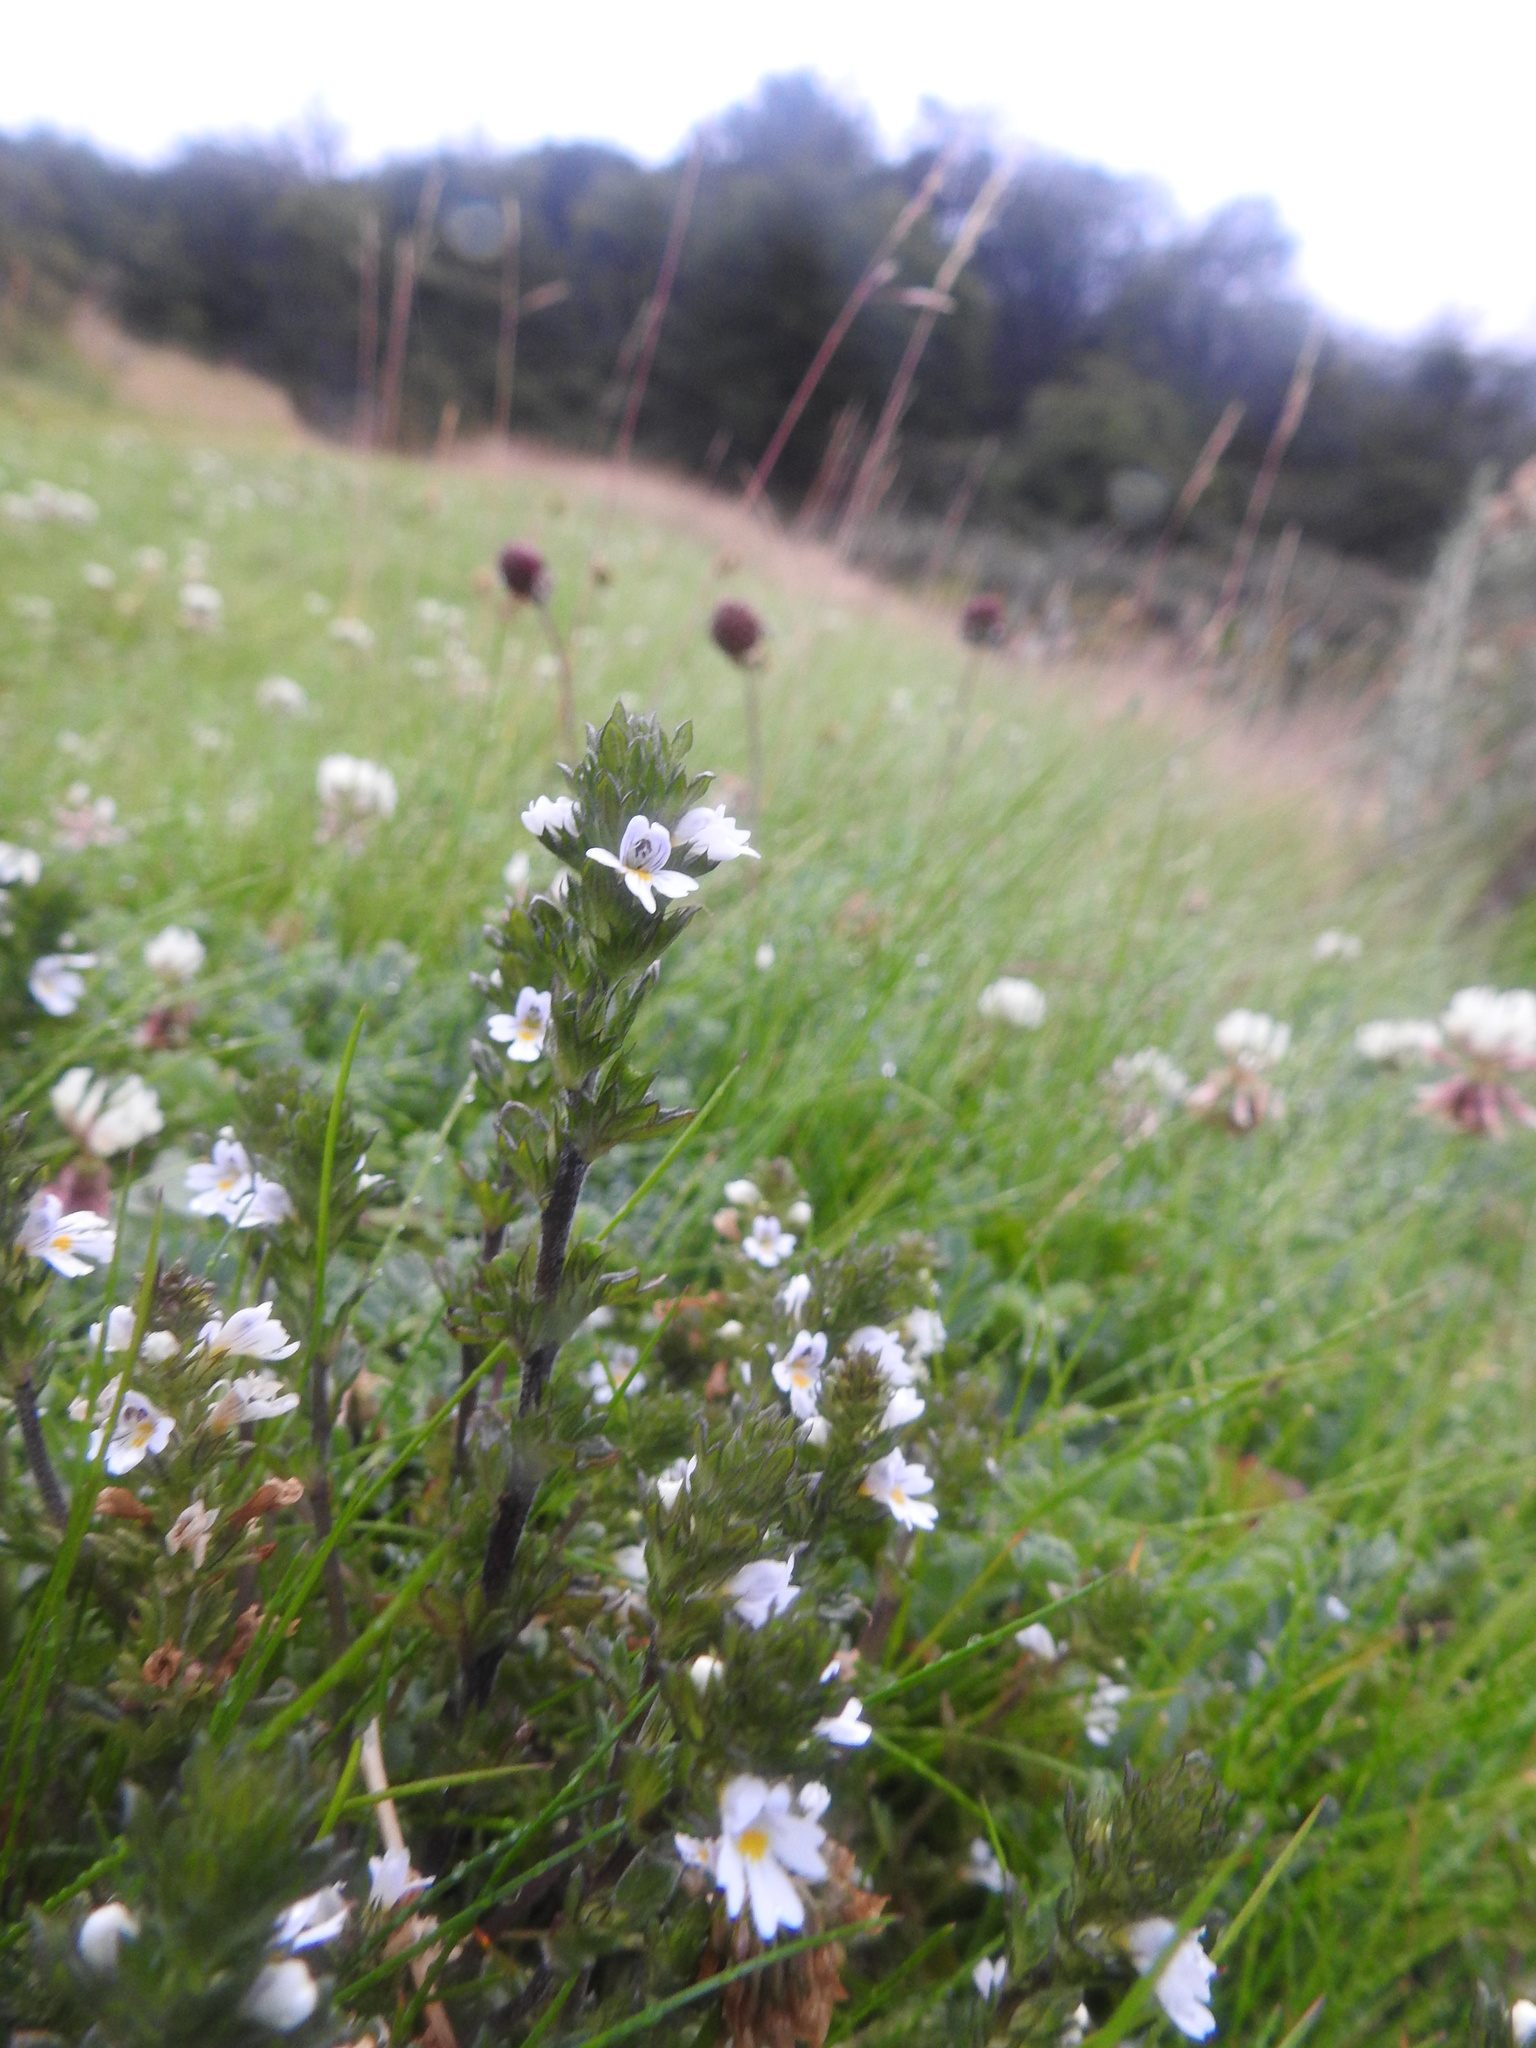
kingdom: Plantae
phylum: Tracheophyta
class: Magnoliopsida
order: Lamiales
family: Orobanchaceae
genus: Euphrasia
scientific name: Euphrasia officinalis
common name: Eyebright
